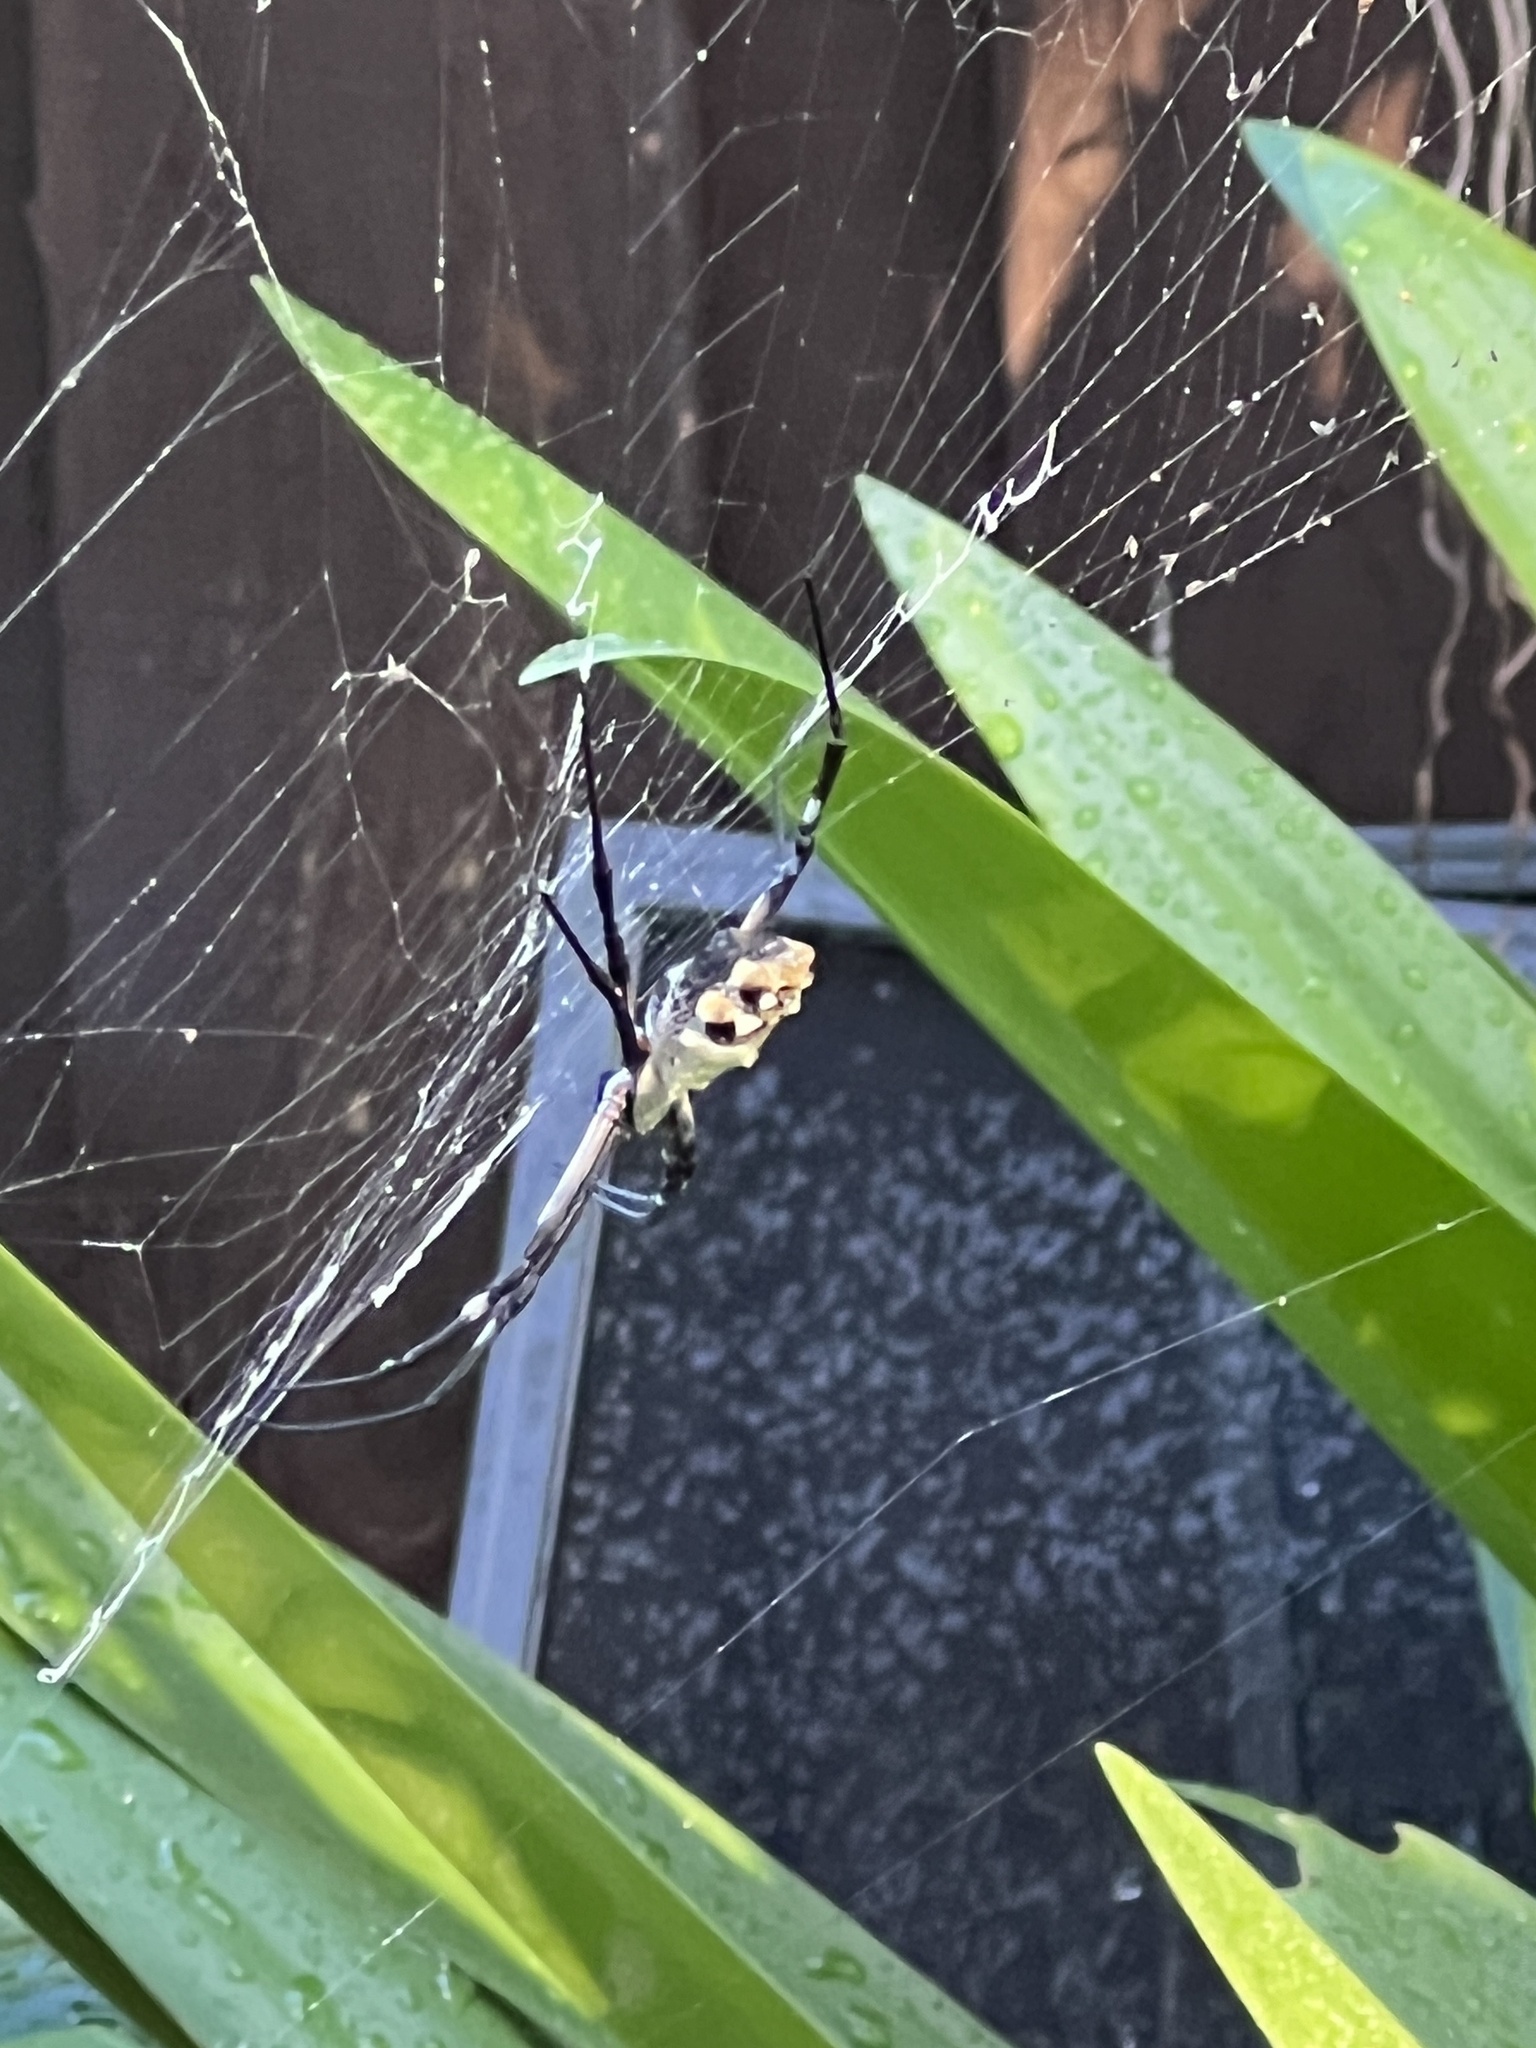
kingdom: Animalia
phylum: Arthropoda
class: Arachnida
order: Araneae
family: Araneidae
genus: Argiope
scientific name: Argiope argentata
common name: Orb weavers
